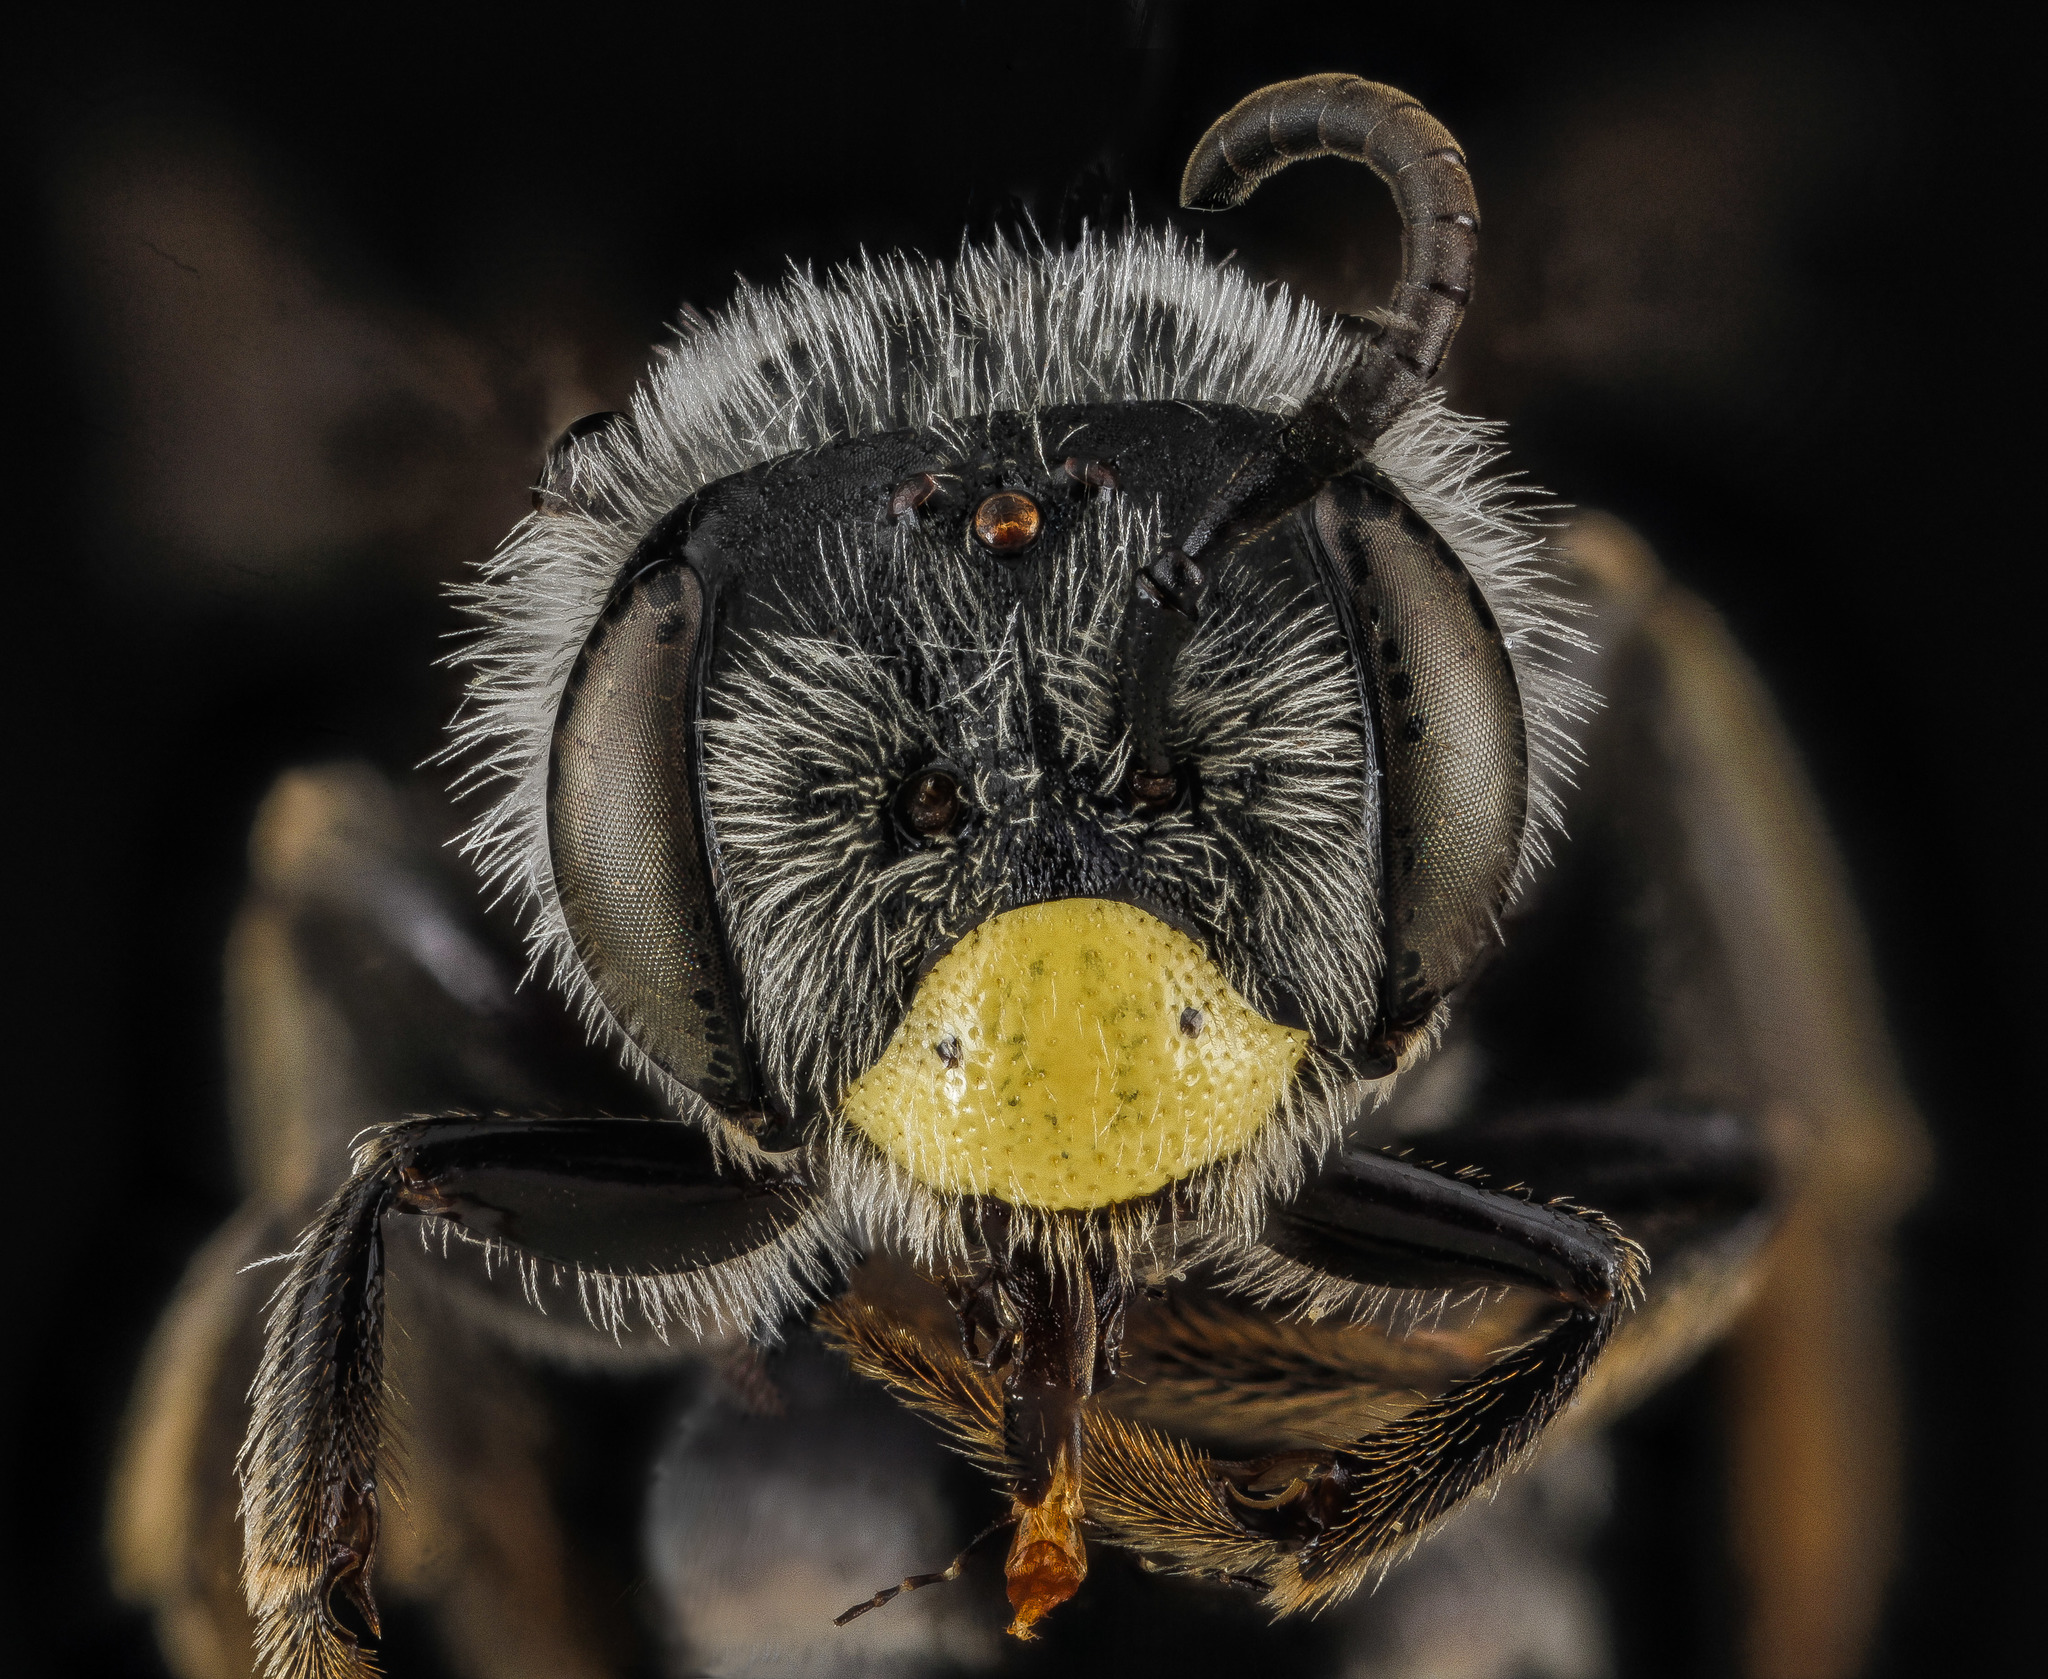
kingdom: Animalia
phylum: Arthropoda
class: Insecta
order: Hymenoptera
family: Andrenidae
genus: Andrena
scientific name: Andrena aliciae
